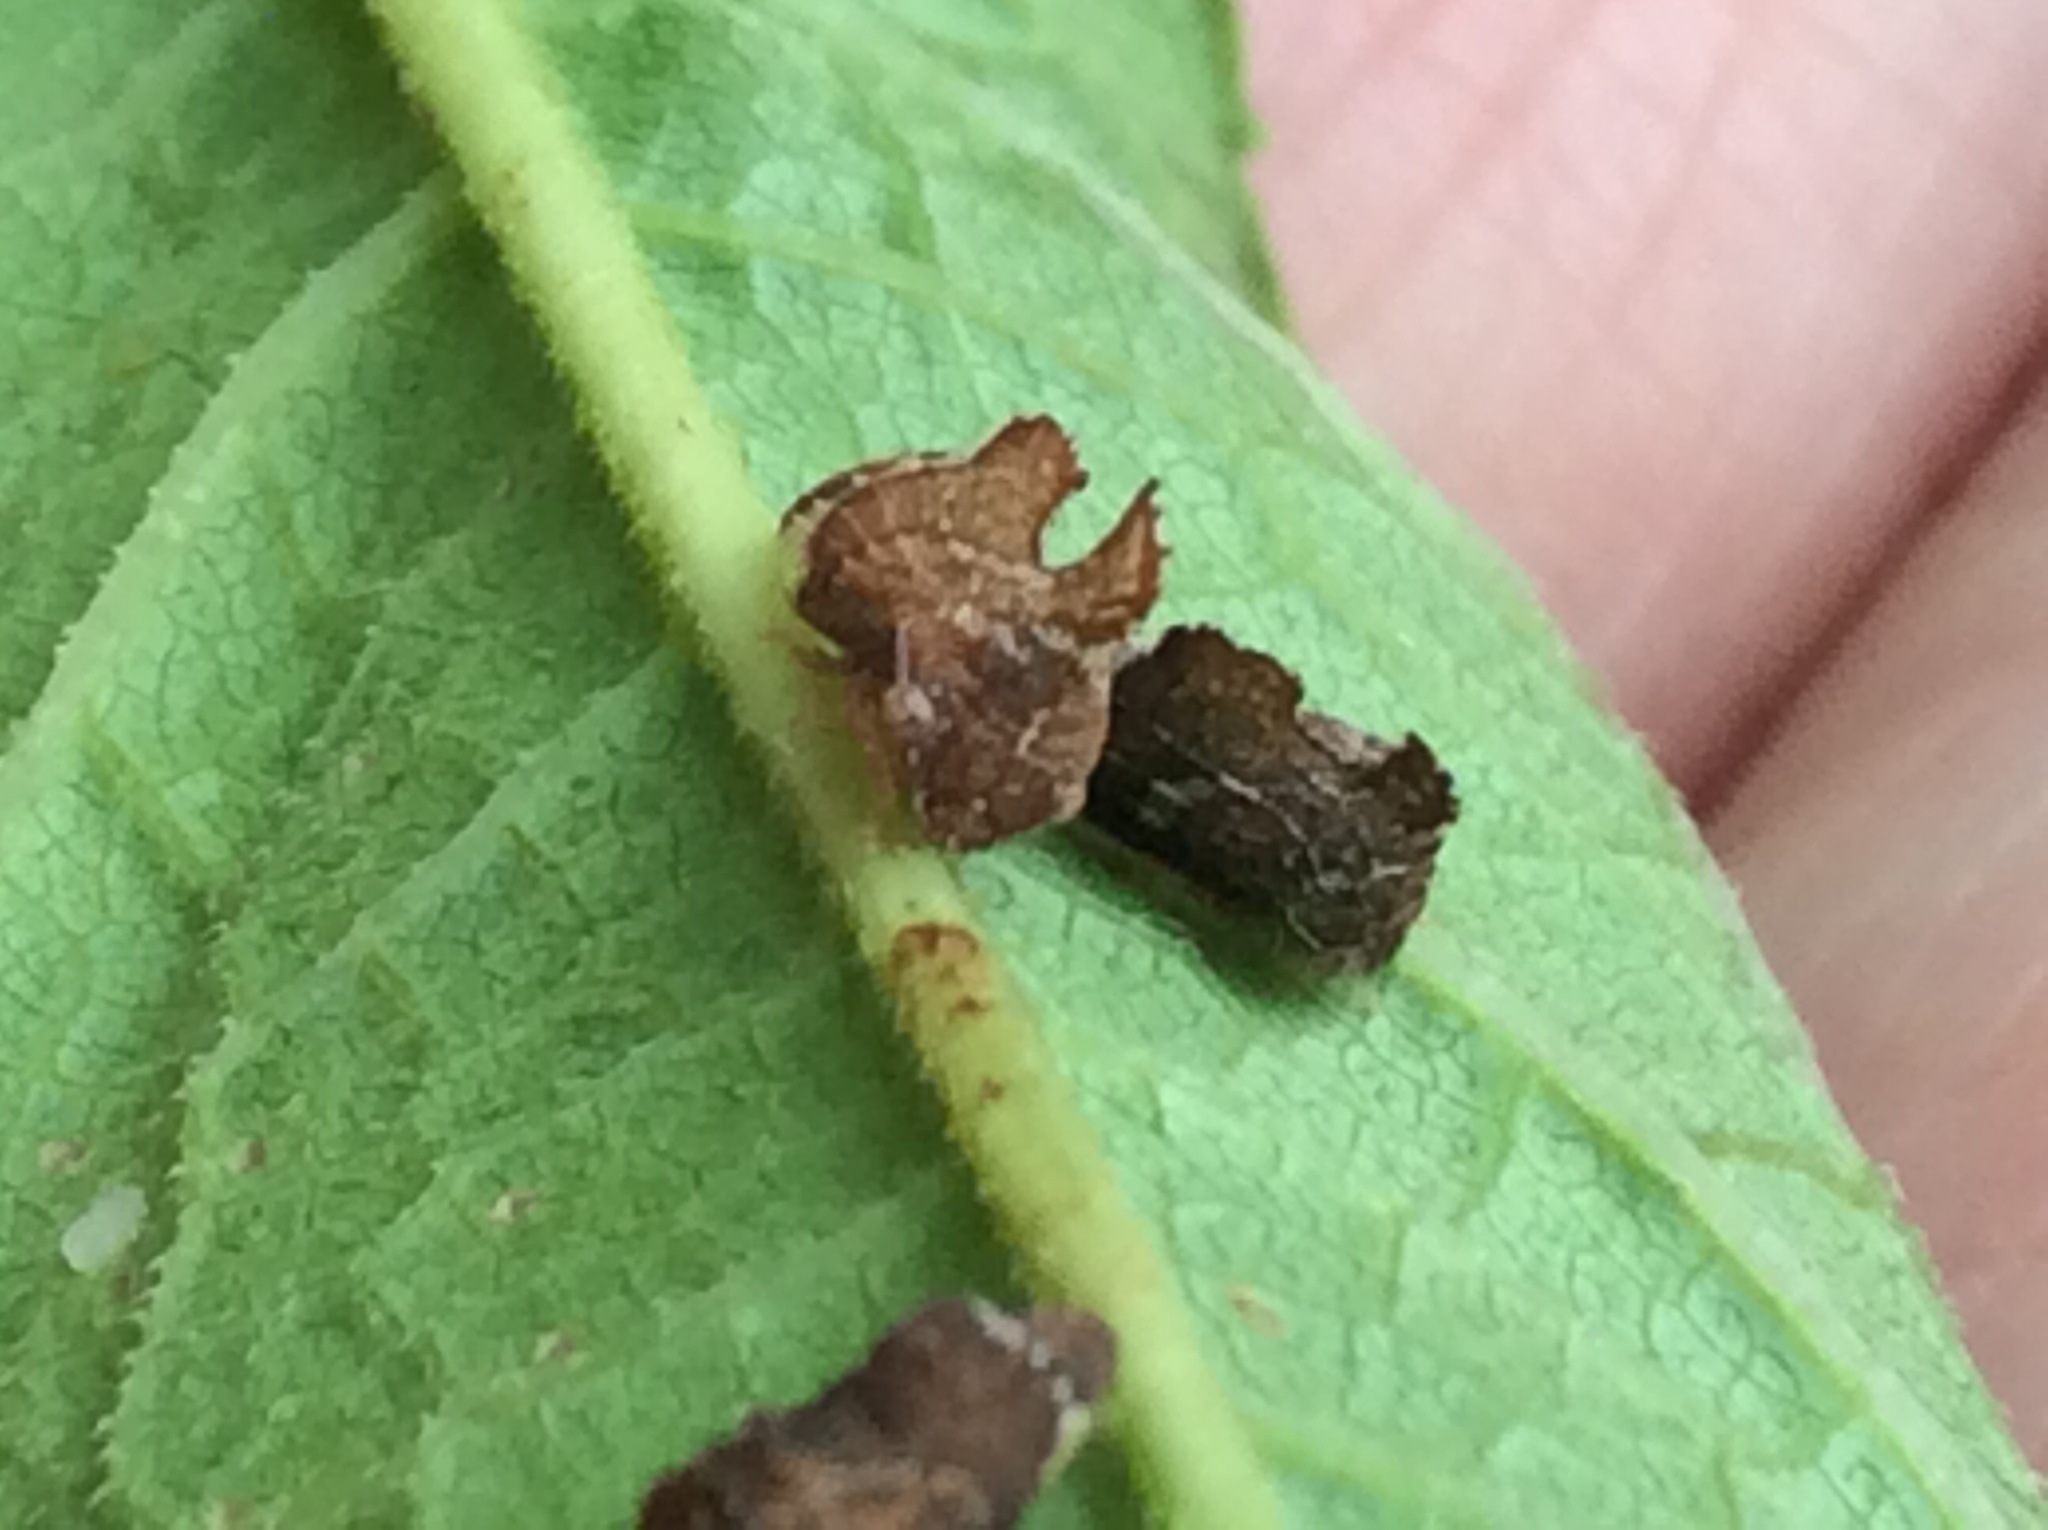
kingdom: Animalia
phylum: Arthropoda
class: Insecta
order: Hemiptera
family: Membracidae
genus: Entylia
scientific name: Entylia carinata
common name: Keeled treehopper
